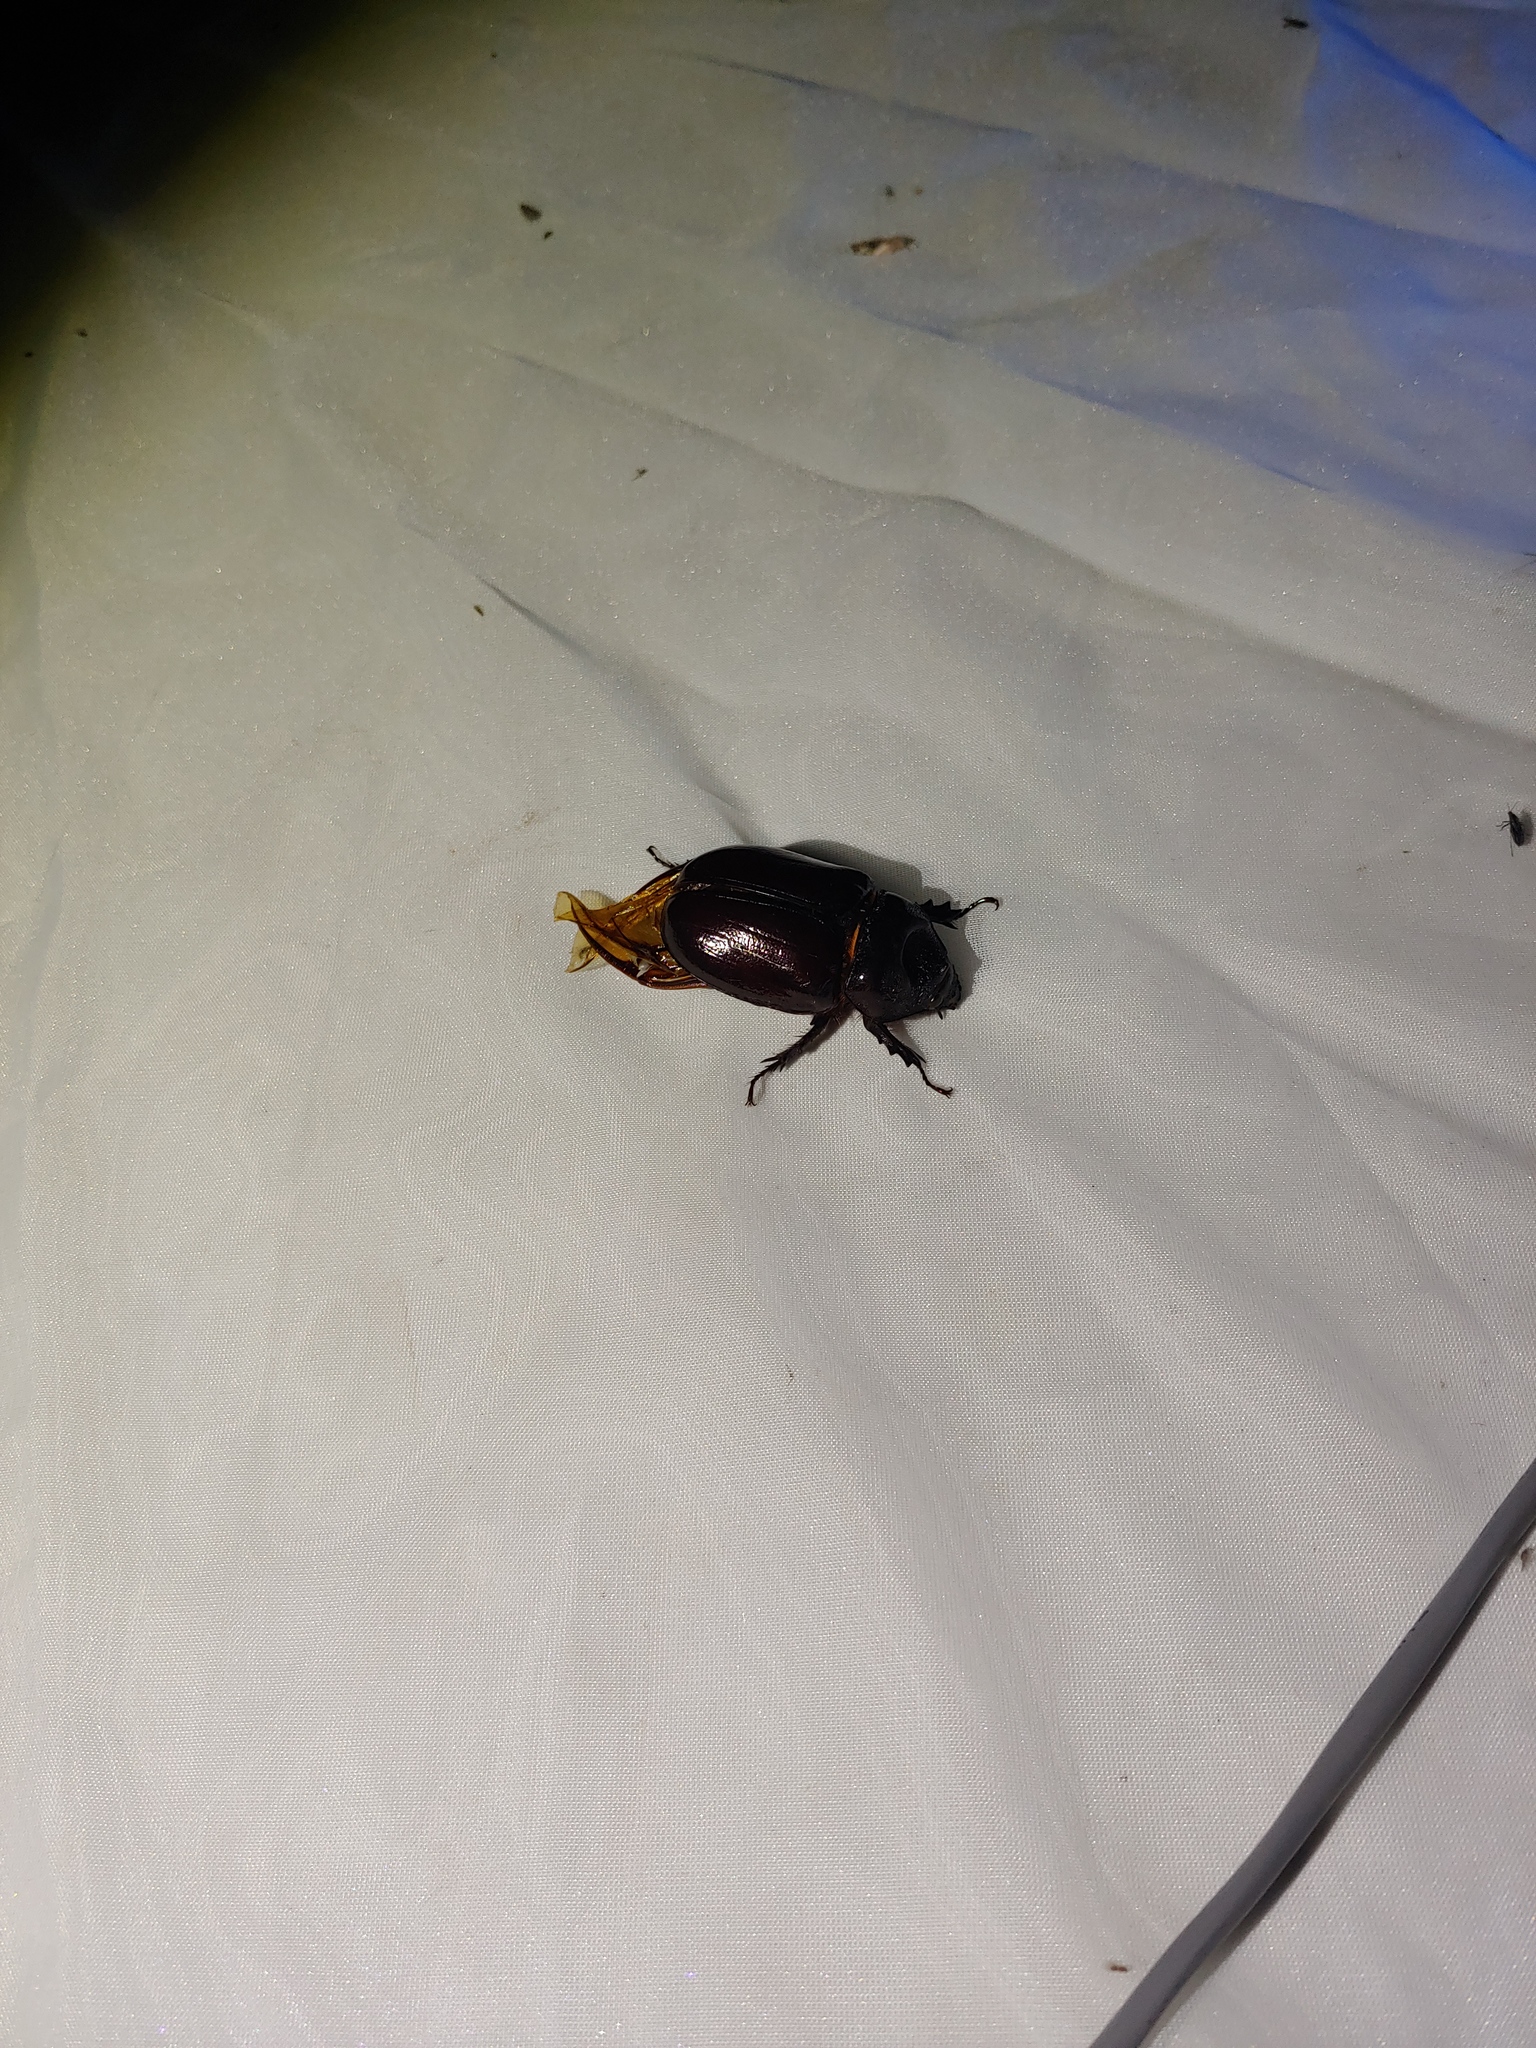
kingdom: Animalia
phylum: Arthropoda
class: Insecta
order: Coleoptera
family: Scarabaeidae
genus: Strategus
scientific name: Strategus aloeus
